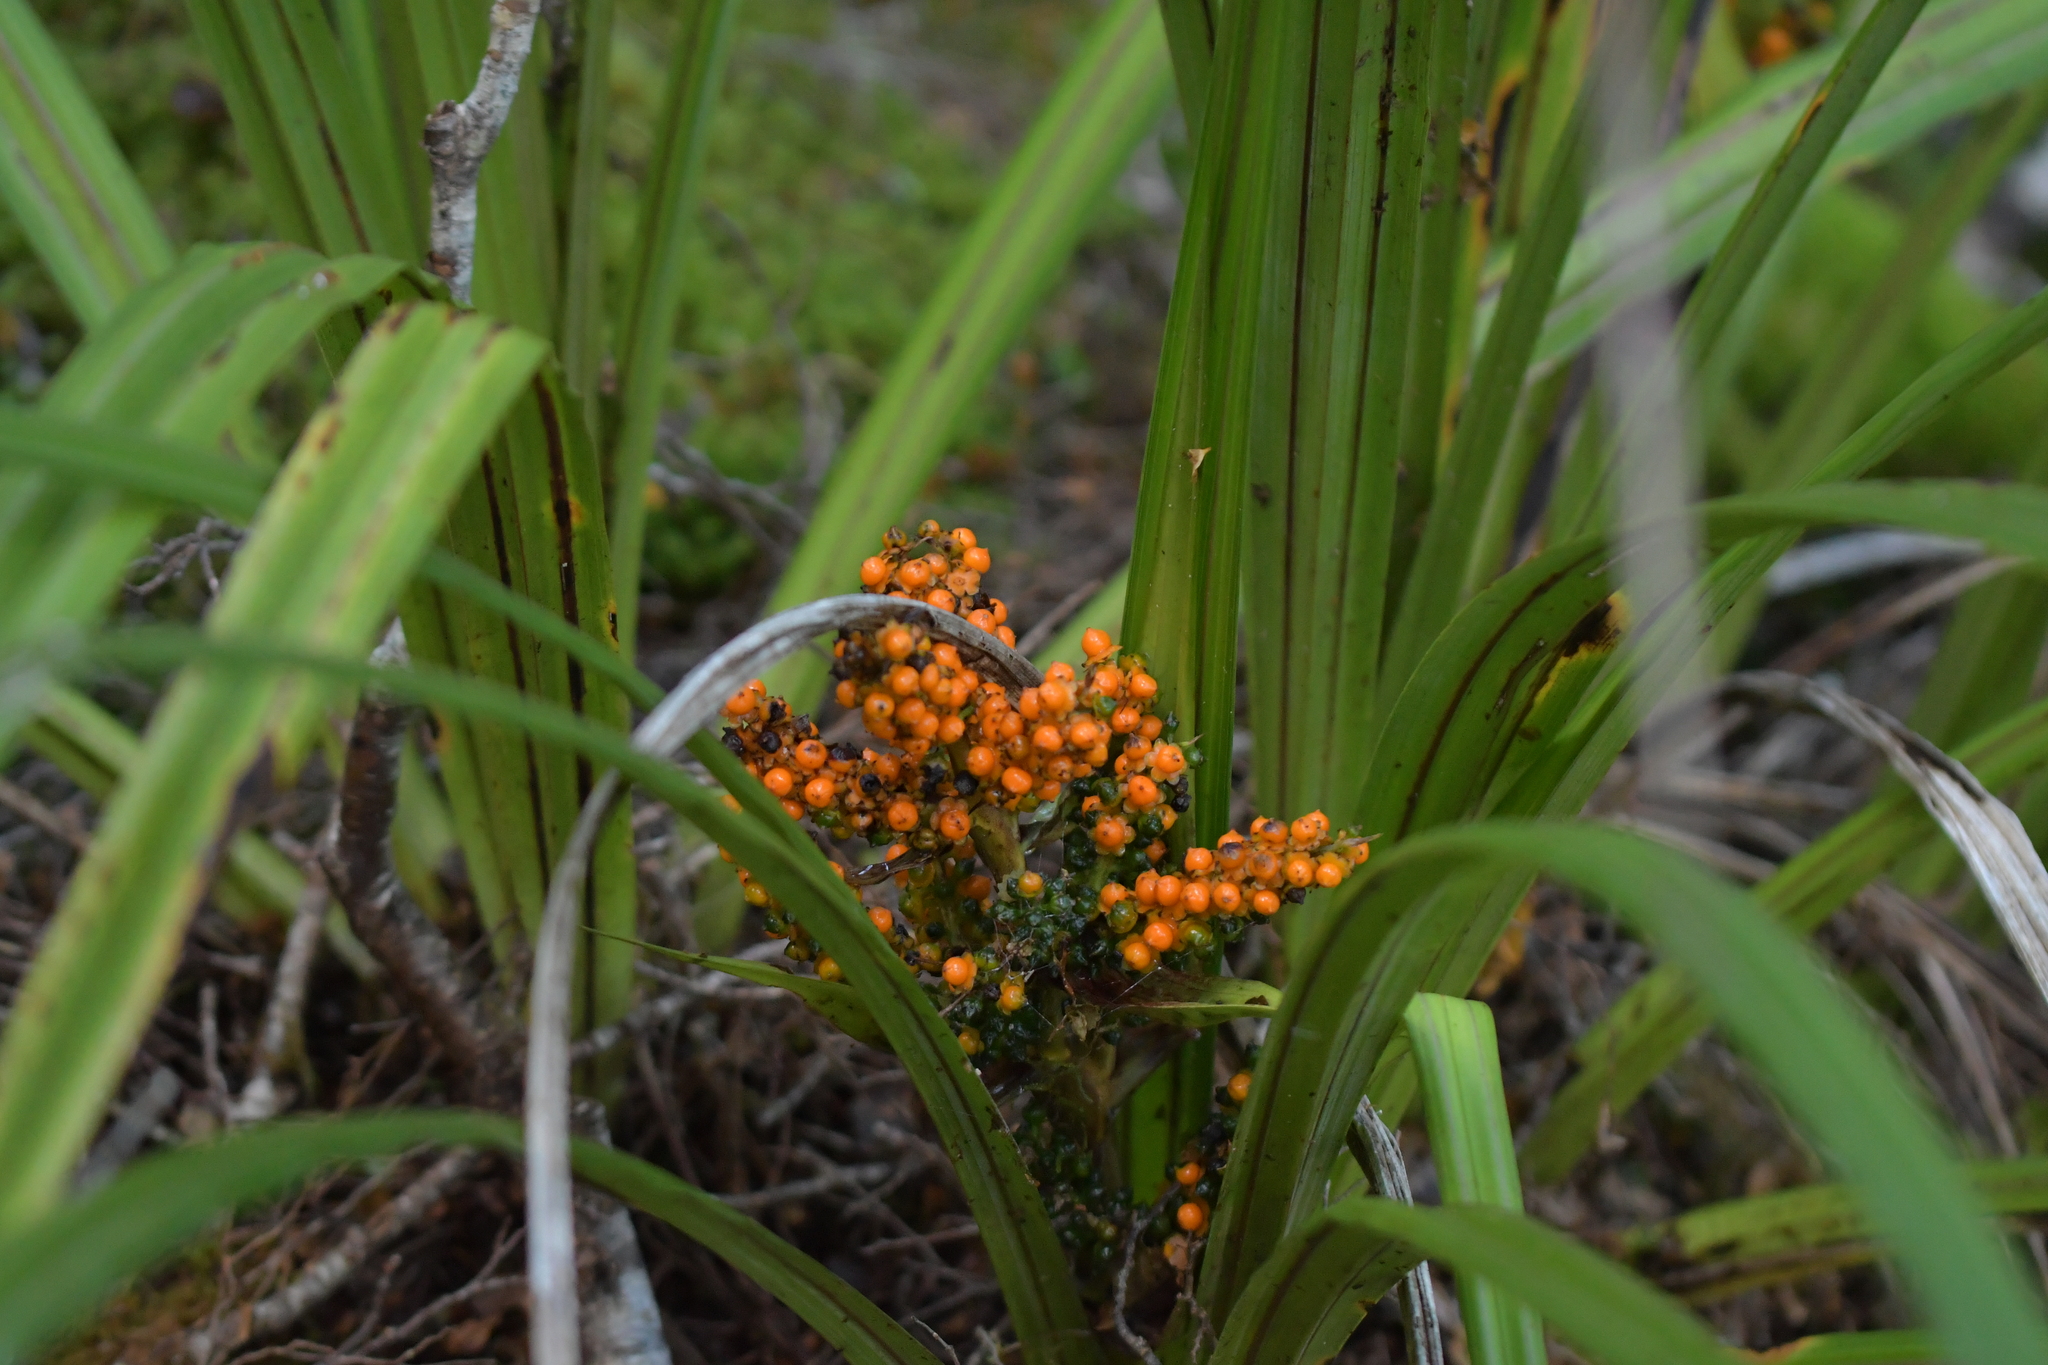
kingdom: Plantae
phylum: Tracheophyta
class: Liliopsida
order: Asparagales
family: Asteliaceae
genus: Astelia
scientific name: Astelia fragrans
